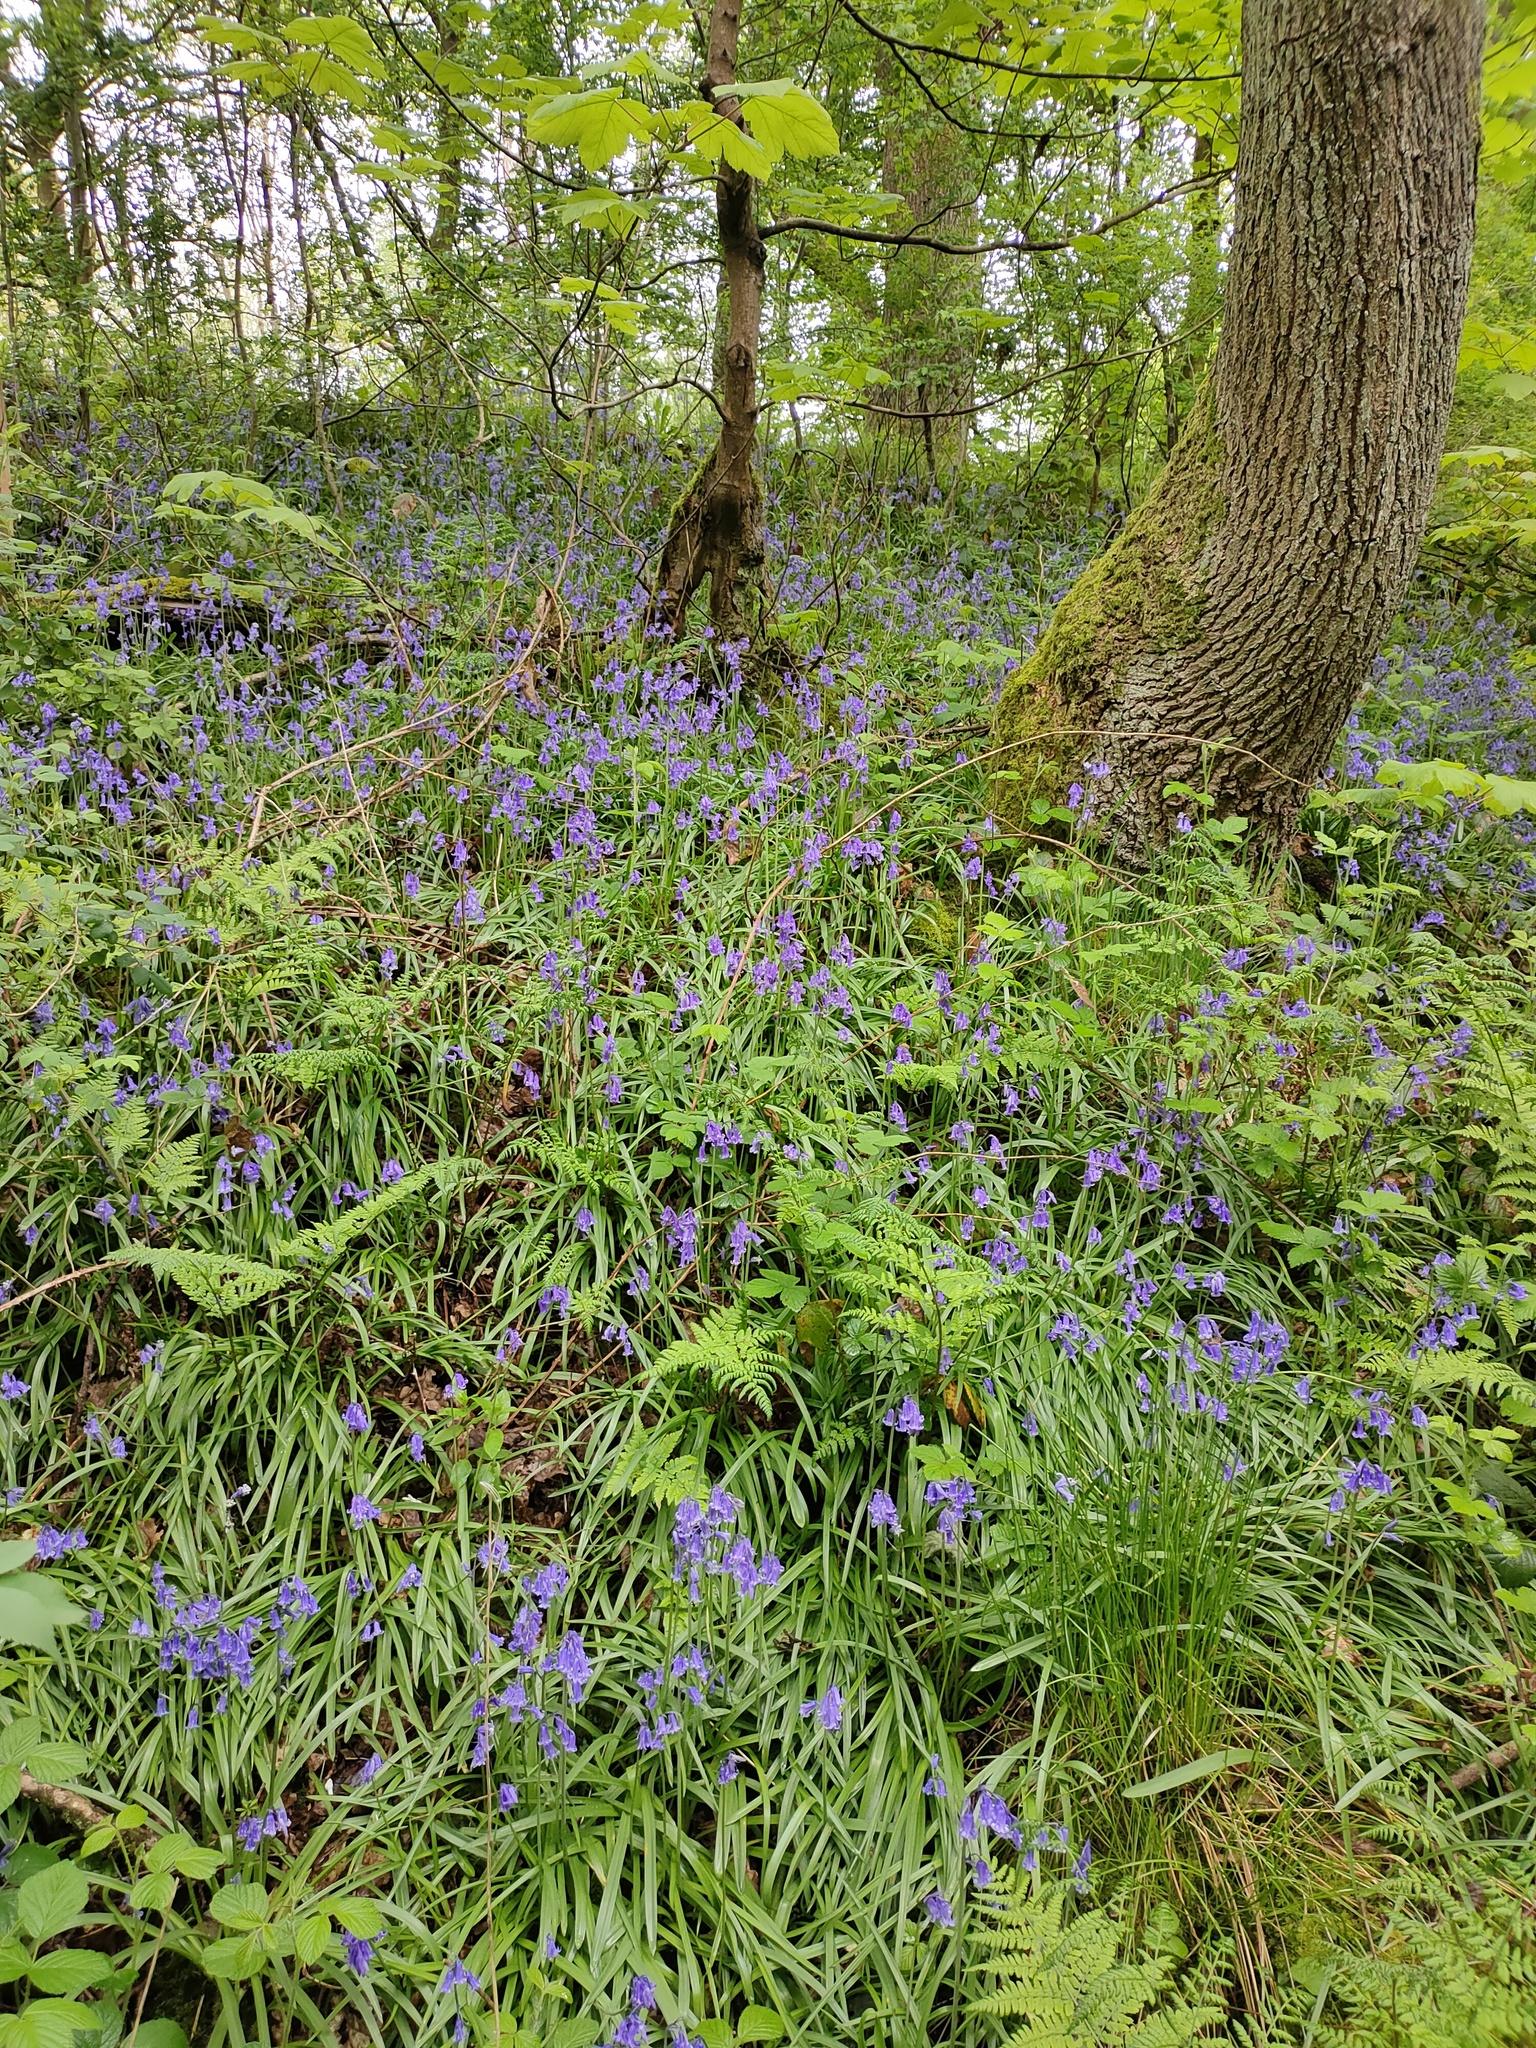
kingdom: Plantae
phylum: Tracheophyta
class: Liliopsida
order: Asparagales
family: Asparagaceae
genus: Hyacinthoides
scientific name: Hyacinthoides non-scripta
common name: Bluebell
